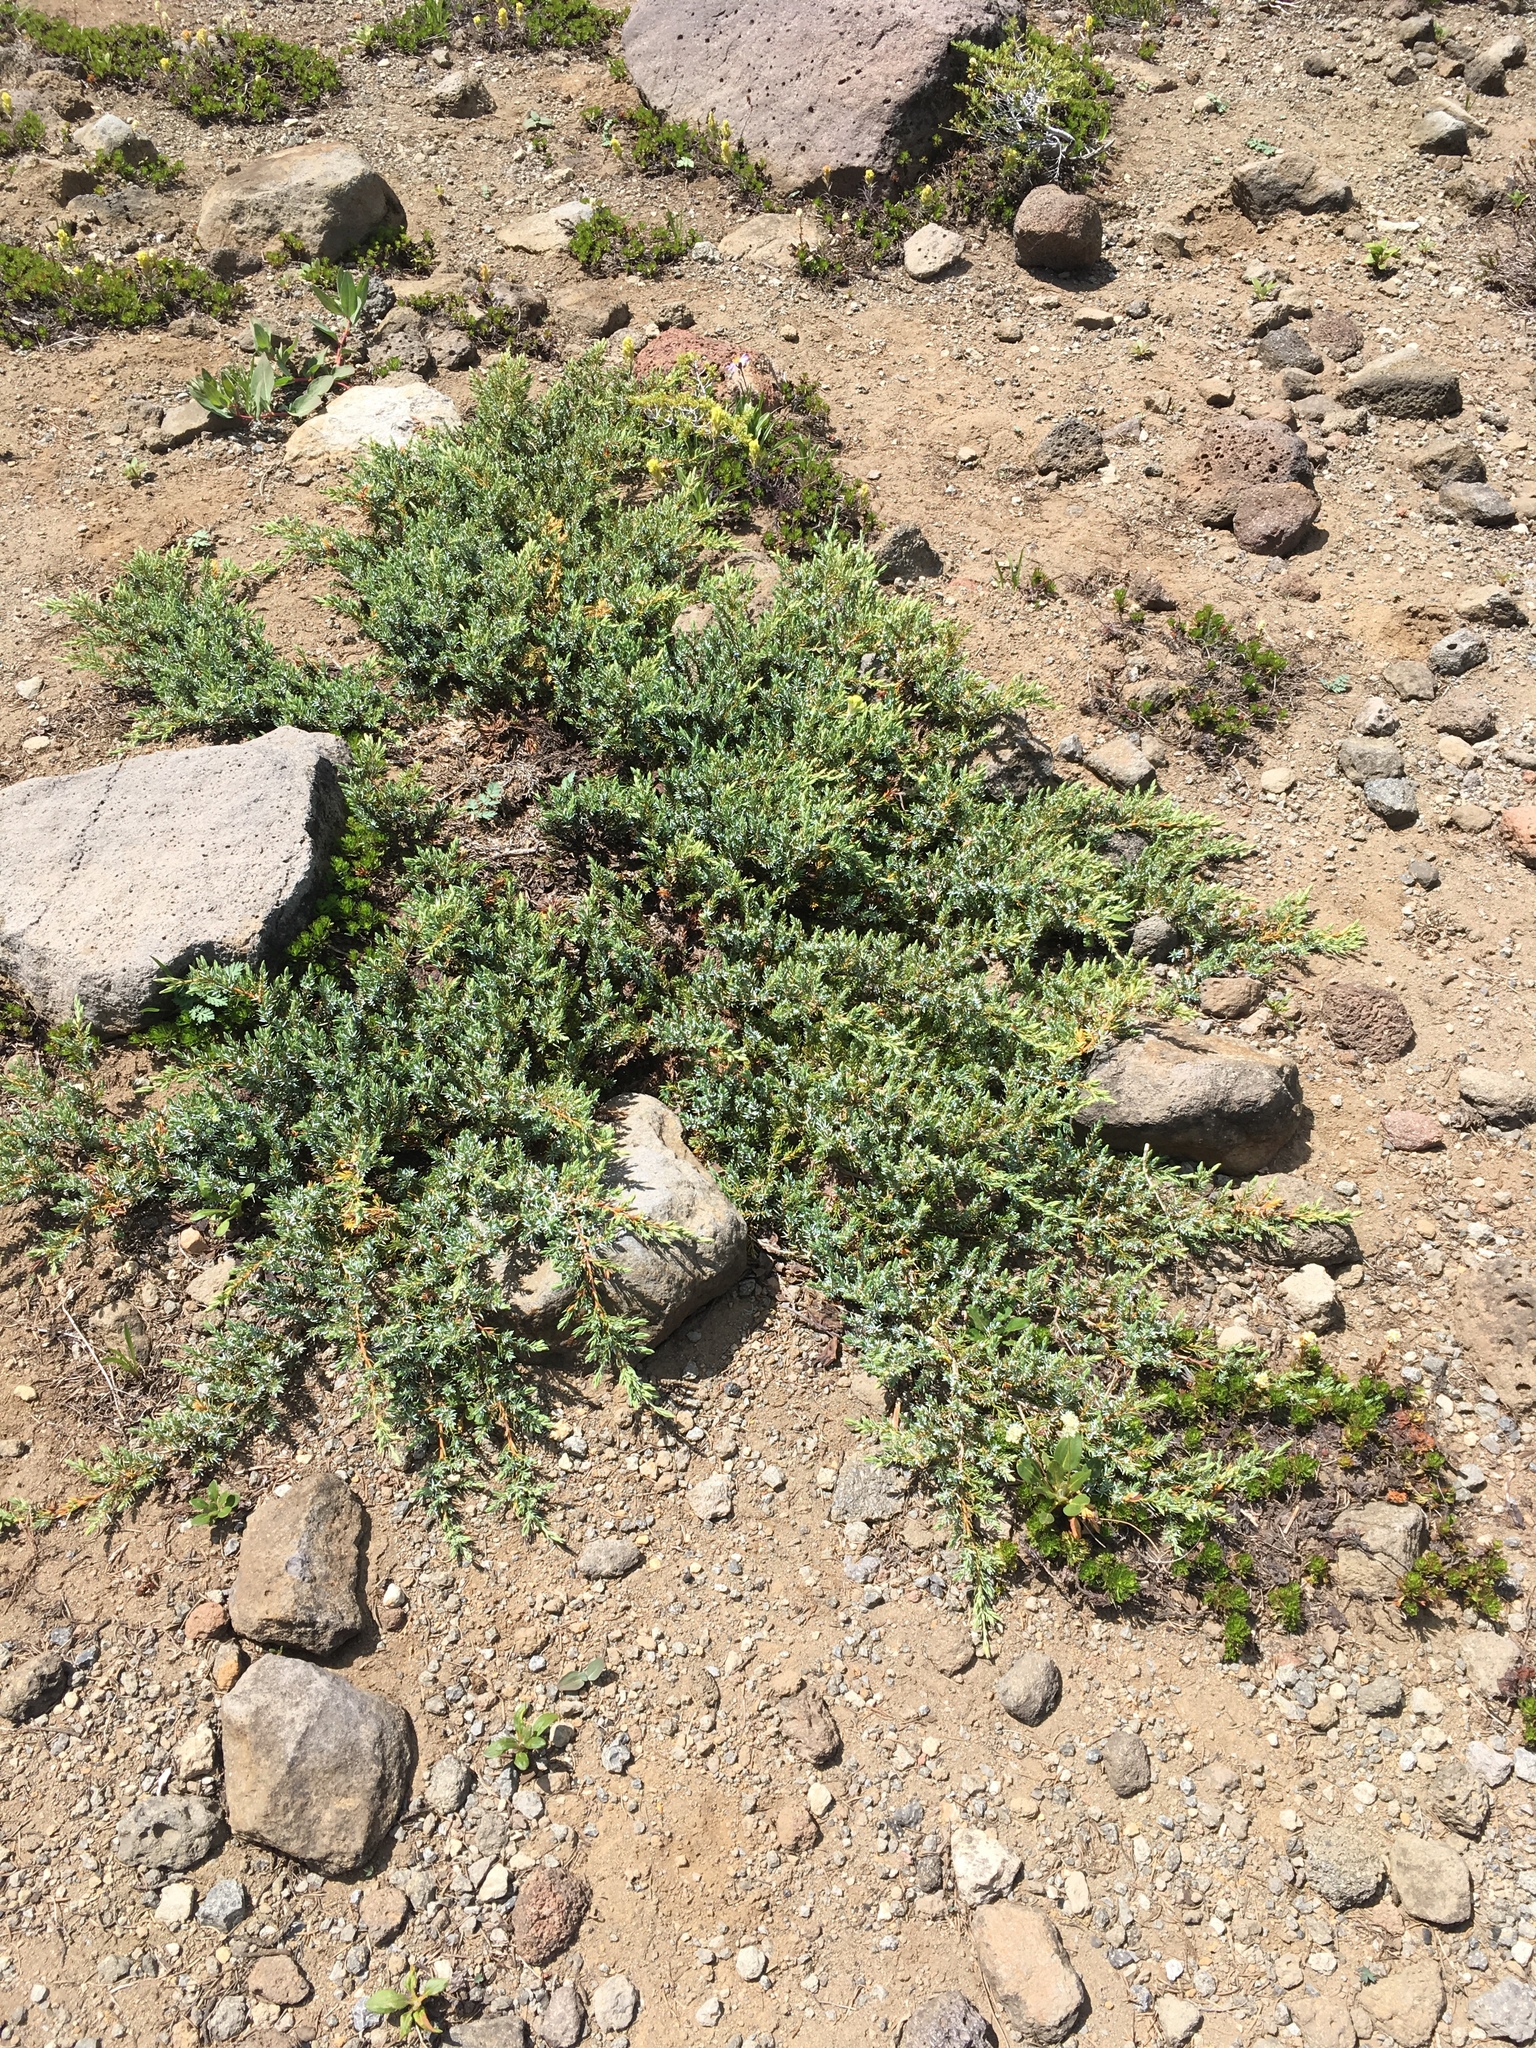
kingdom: Plantae
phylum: Tracheophyta
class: Pinopsida
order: Pinales
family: Cupressaceae
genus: Juniperus
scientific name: Juniperus communis
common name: Common juniper
